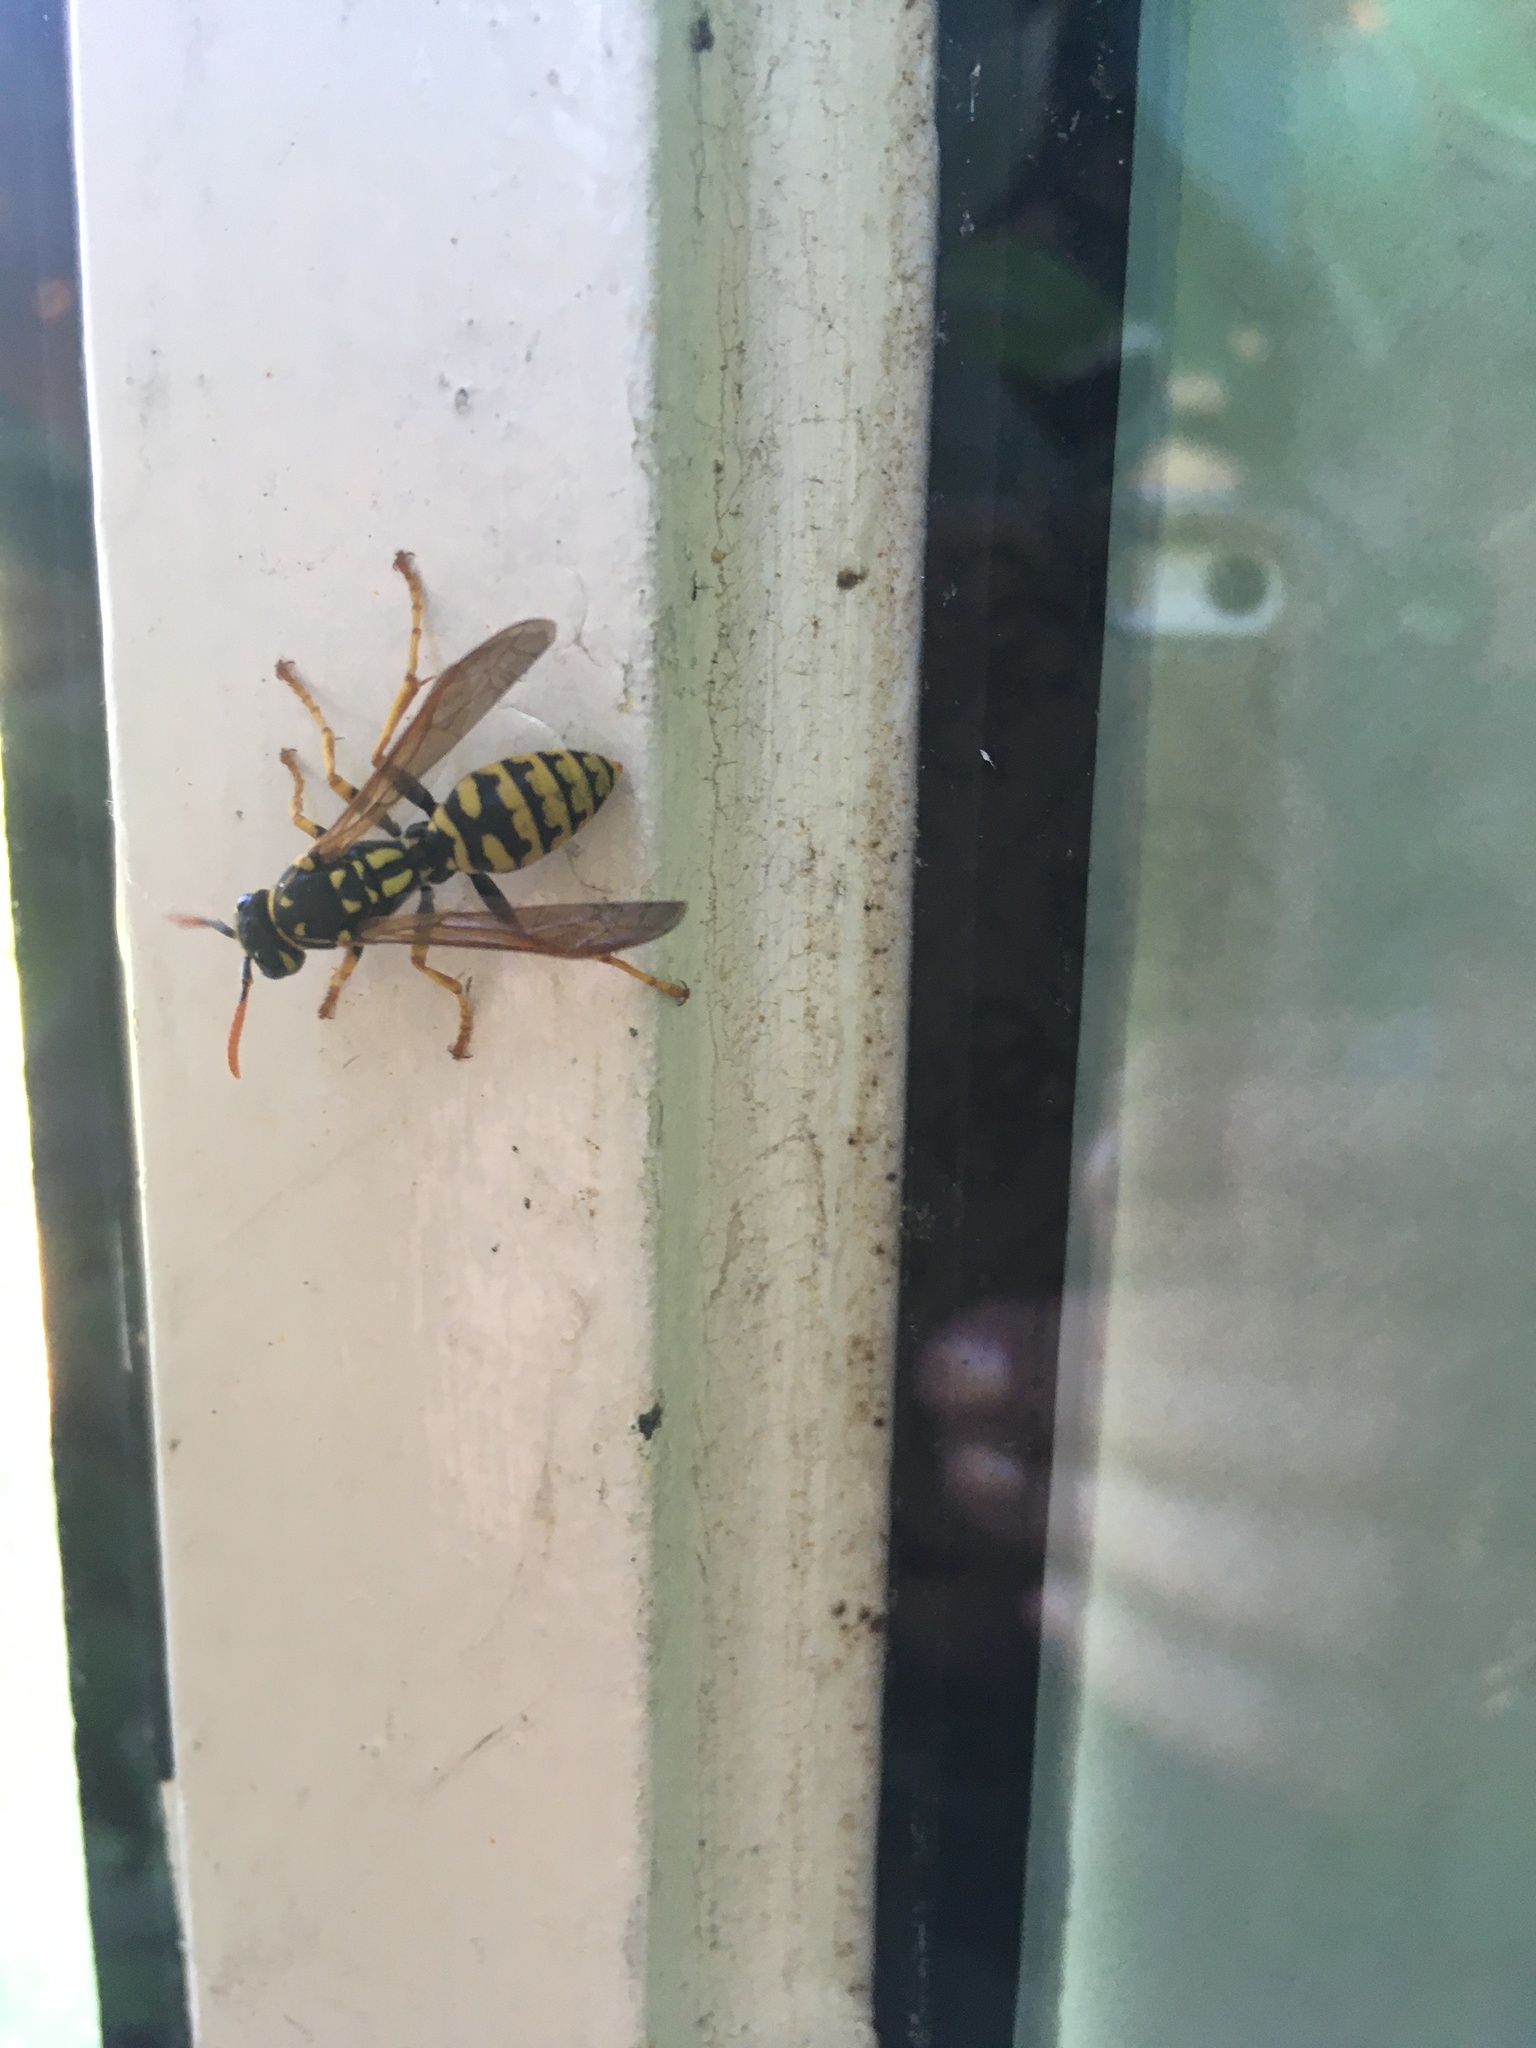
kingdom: Animalia
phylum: Arthropoda
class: Insecta
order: Hymenoptera
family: Eumenidae
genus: Polistes
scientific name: Polistes dominula
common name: Paper wasp
